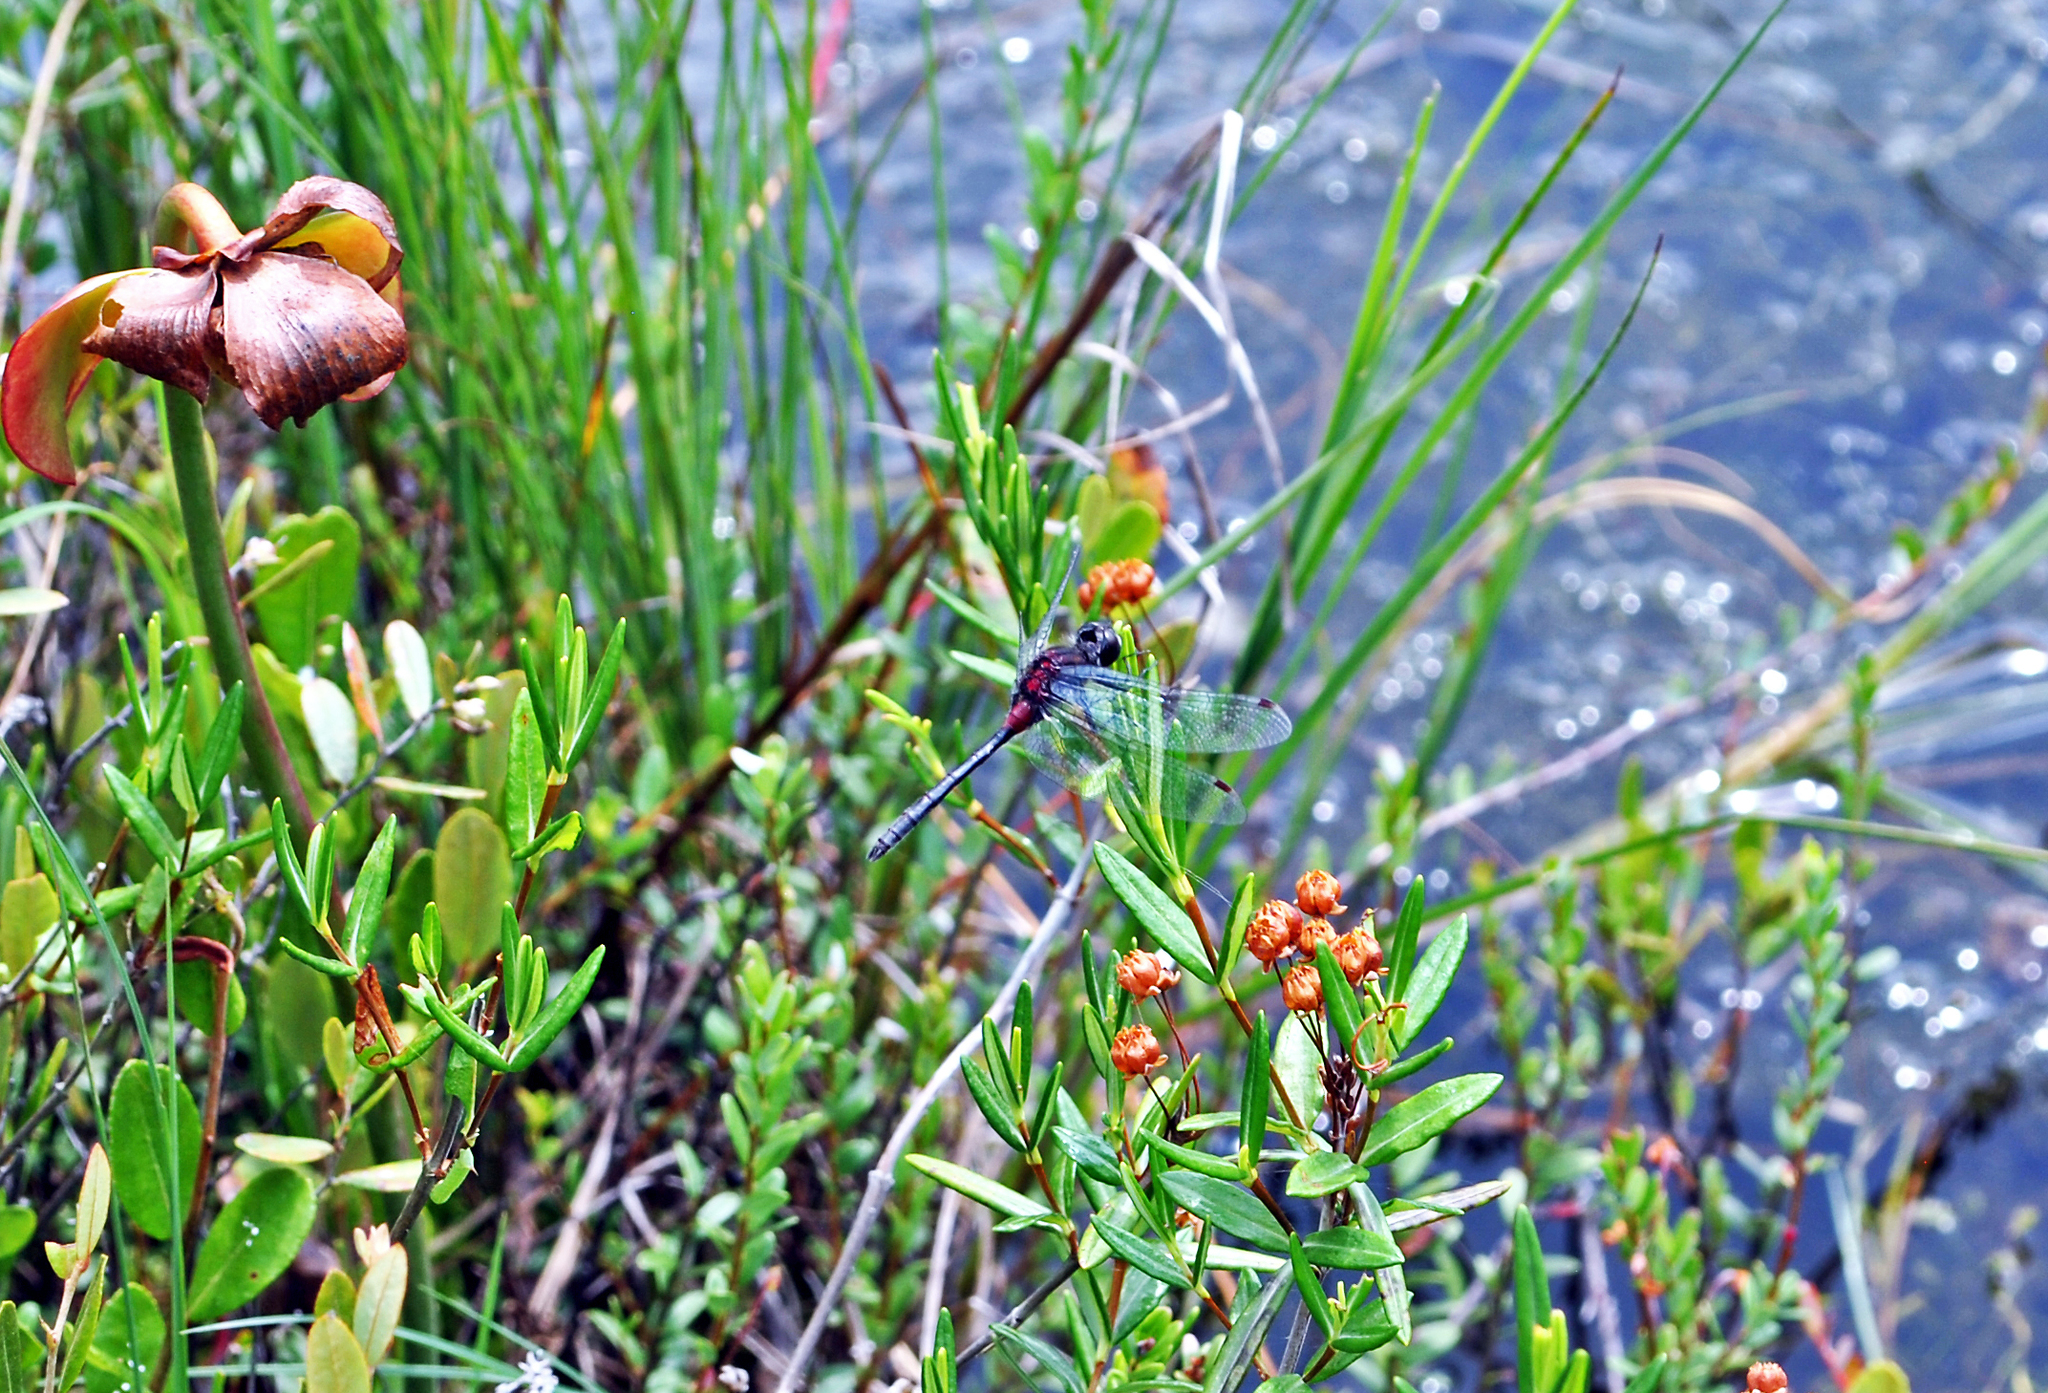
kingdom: Animalia
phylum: Arthropoda
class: Insecta
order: Odonata
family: Libellulidae
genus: Leucorrhinia
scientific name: Leucorrhinia glacialis
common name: Crimson-ringed whiteface
